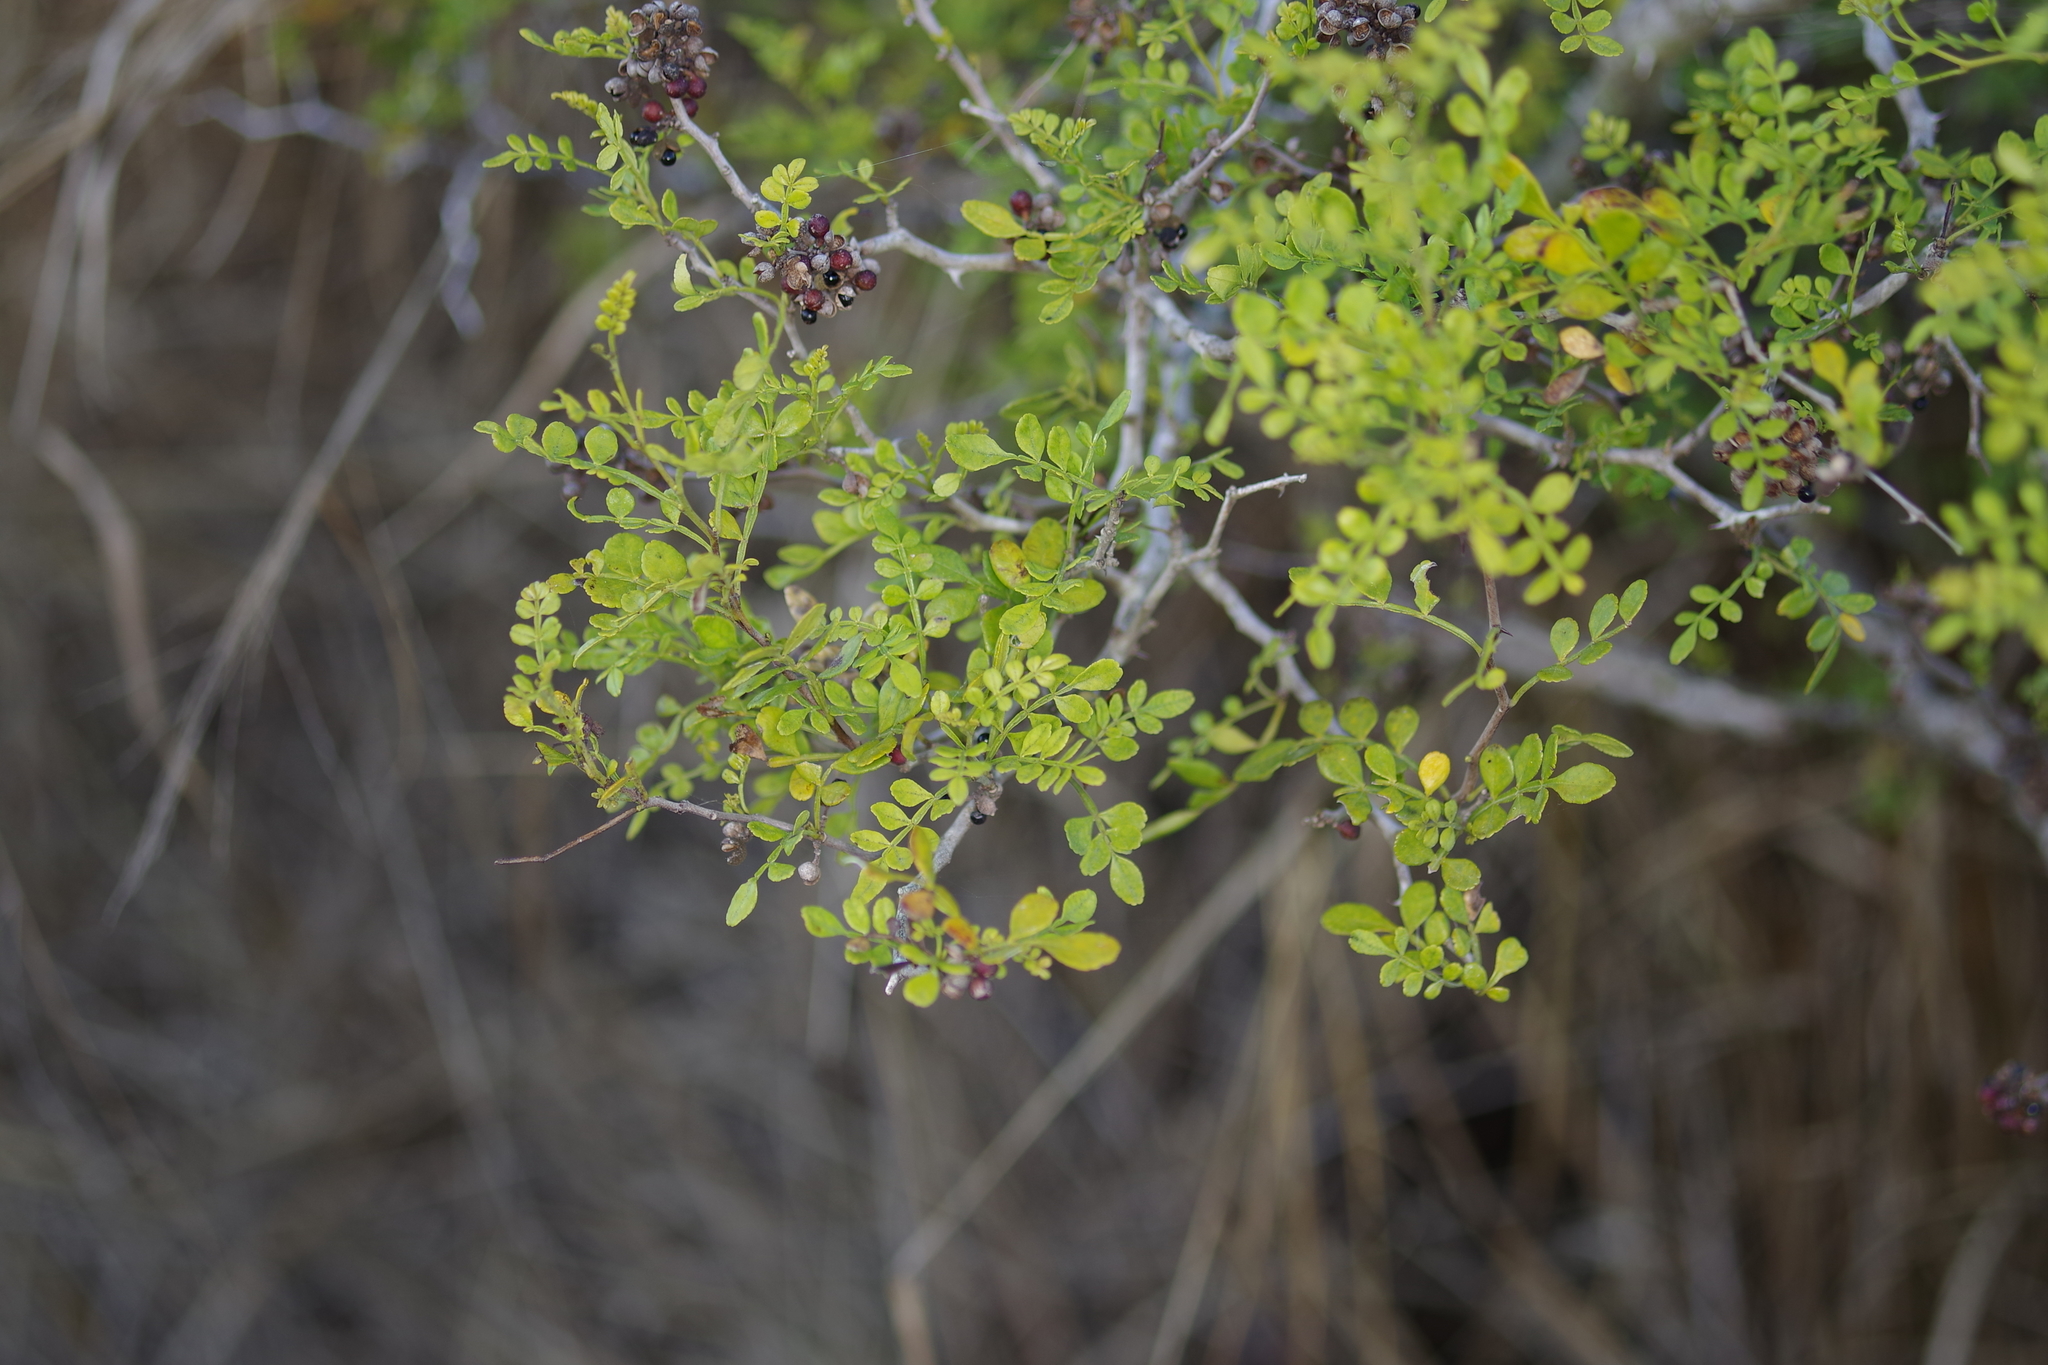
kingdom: Plantae
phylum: Tracheophyta
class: Magnoliopsida
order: Sapindales
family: Rutaceae
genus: Zanthoxylum
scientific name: Zanthoxylum fagara
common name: Lime prickly-ash
